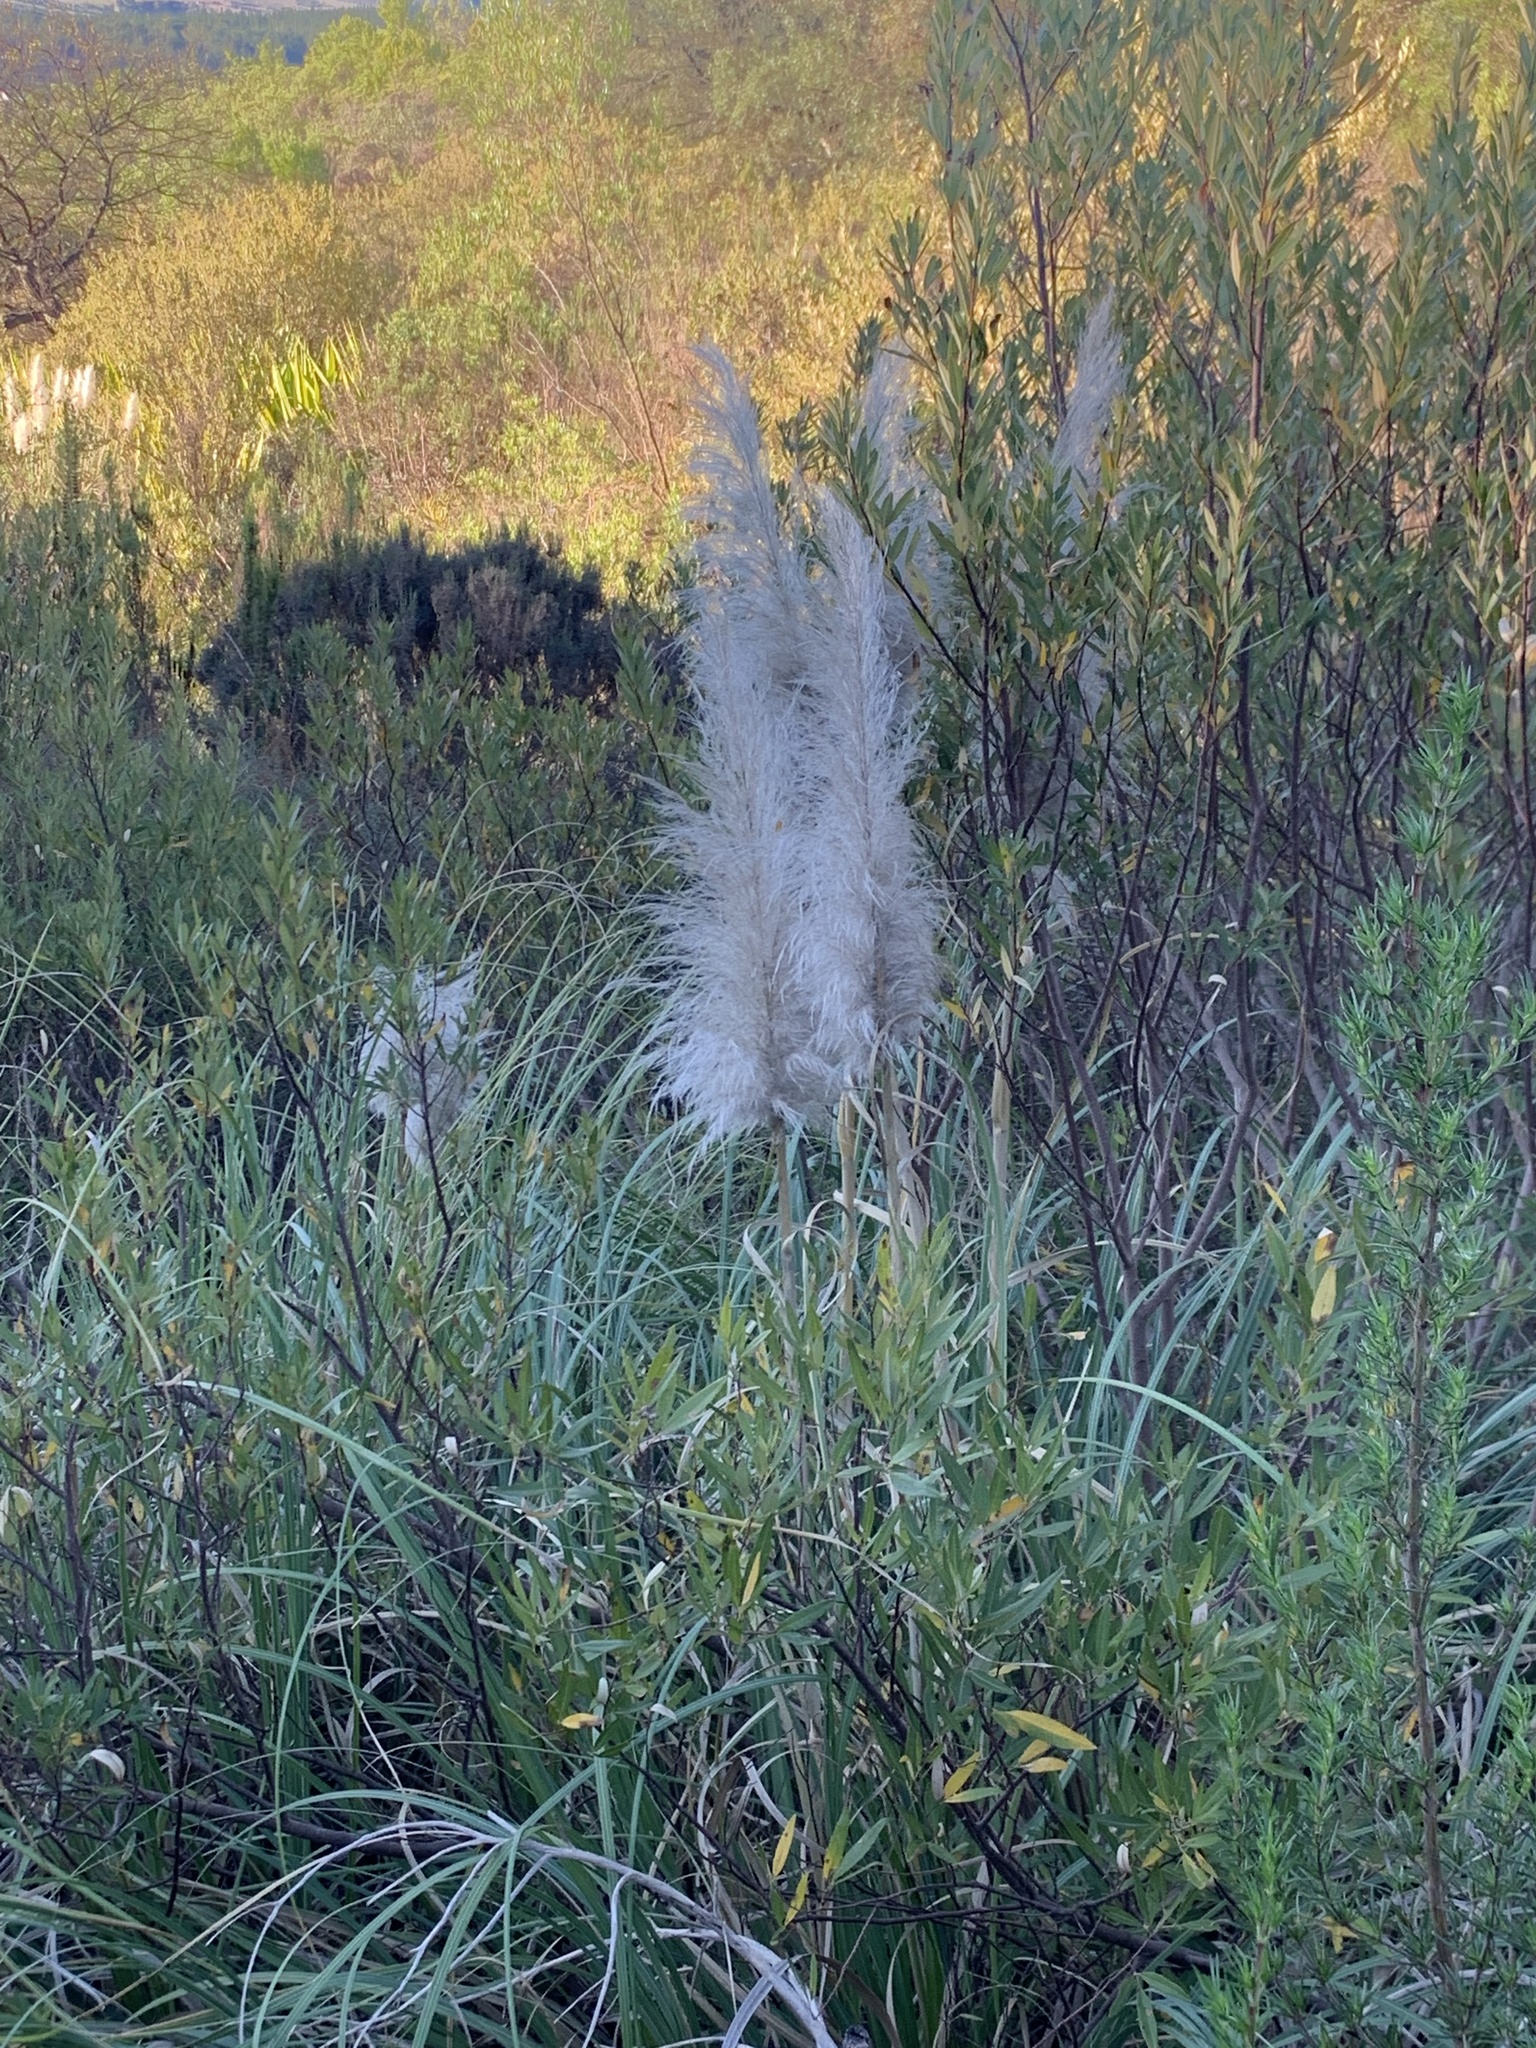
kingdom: Plantae
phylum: Tracheophyta
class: Liliopsida
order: Poales
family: Poaceae
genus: Cortaderia
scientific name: Cortaderia selloana
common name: Uruguayan pampas grass
